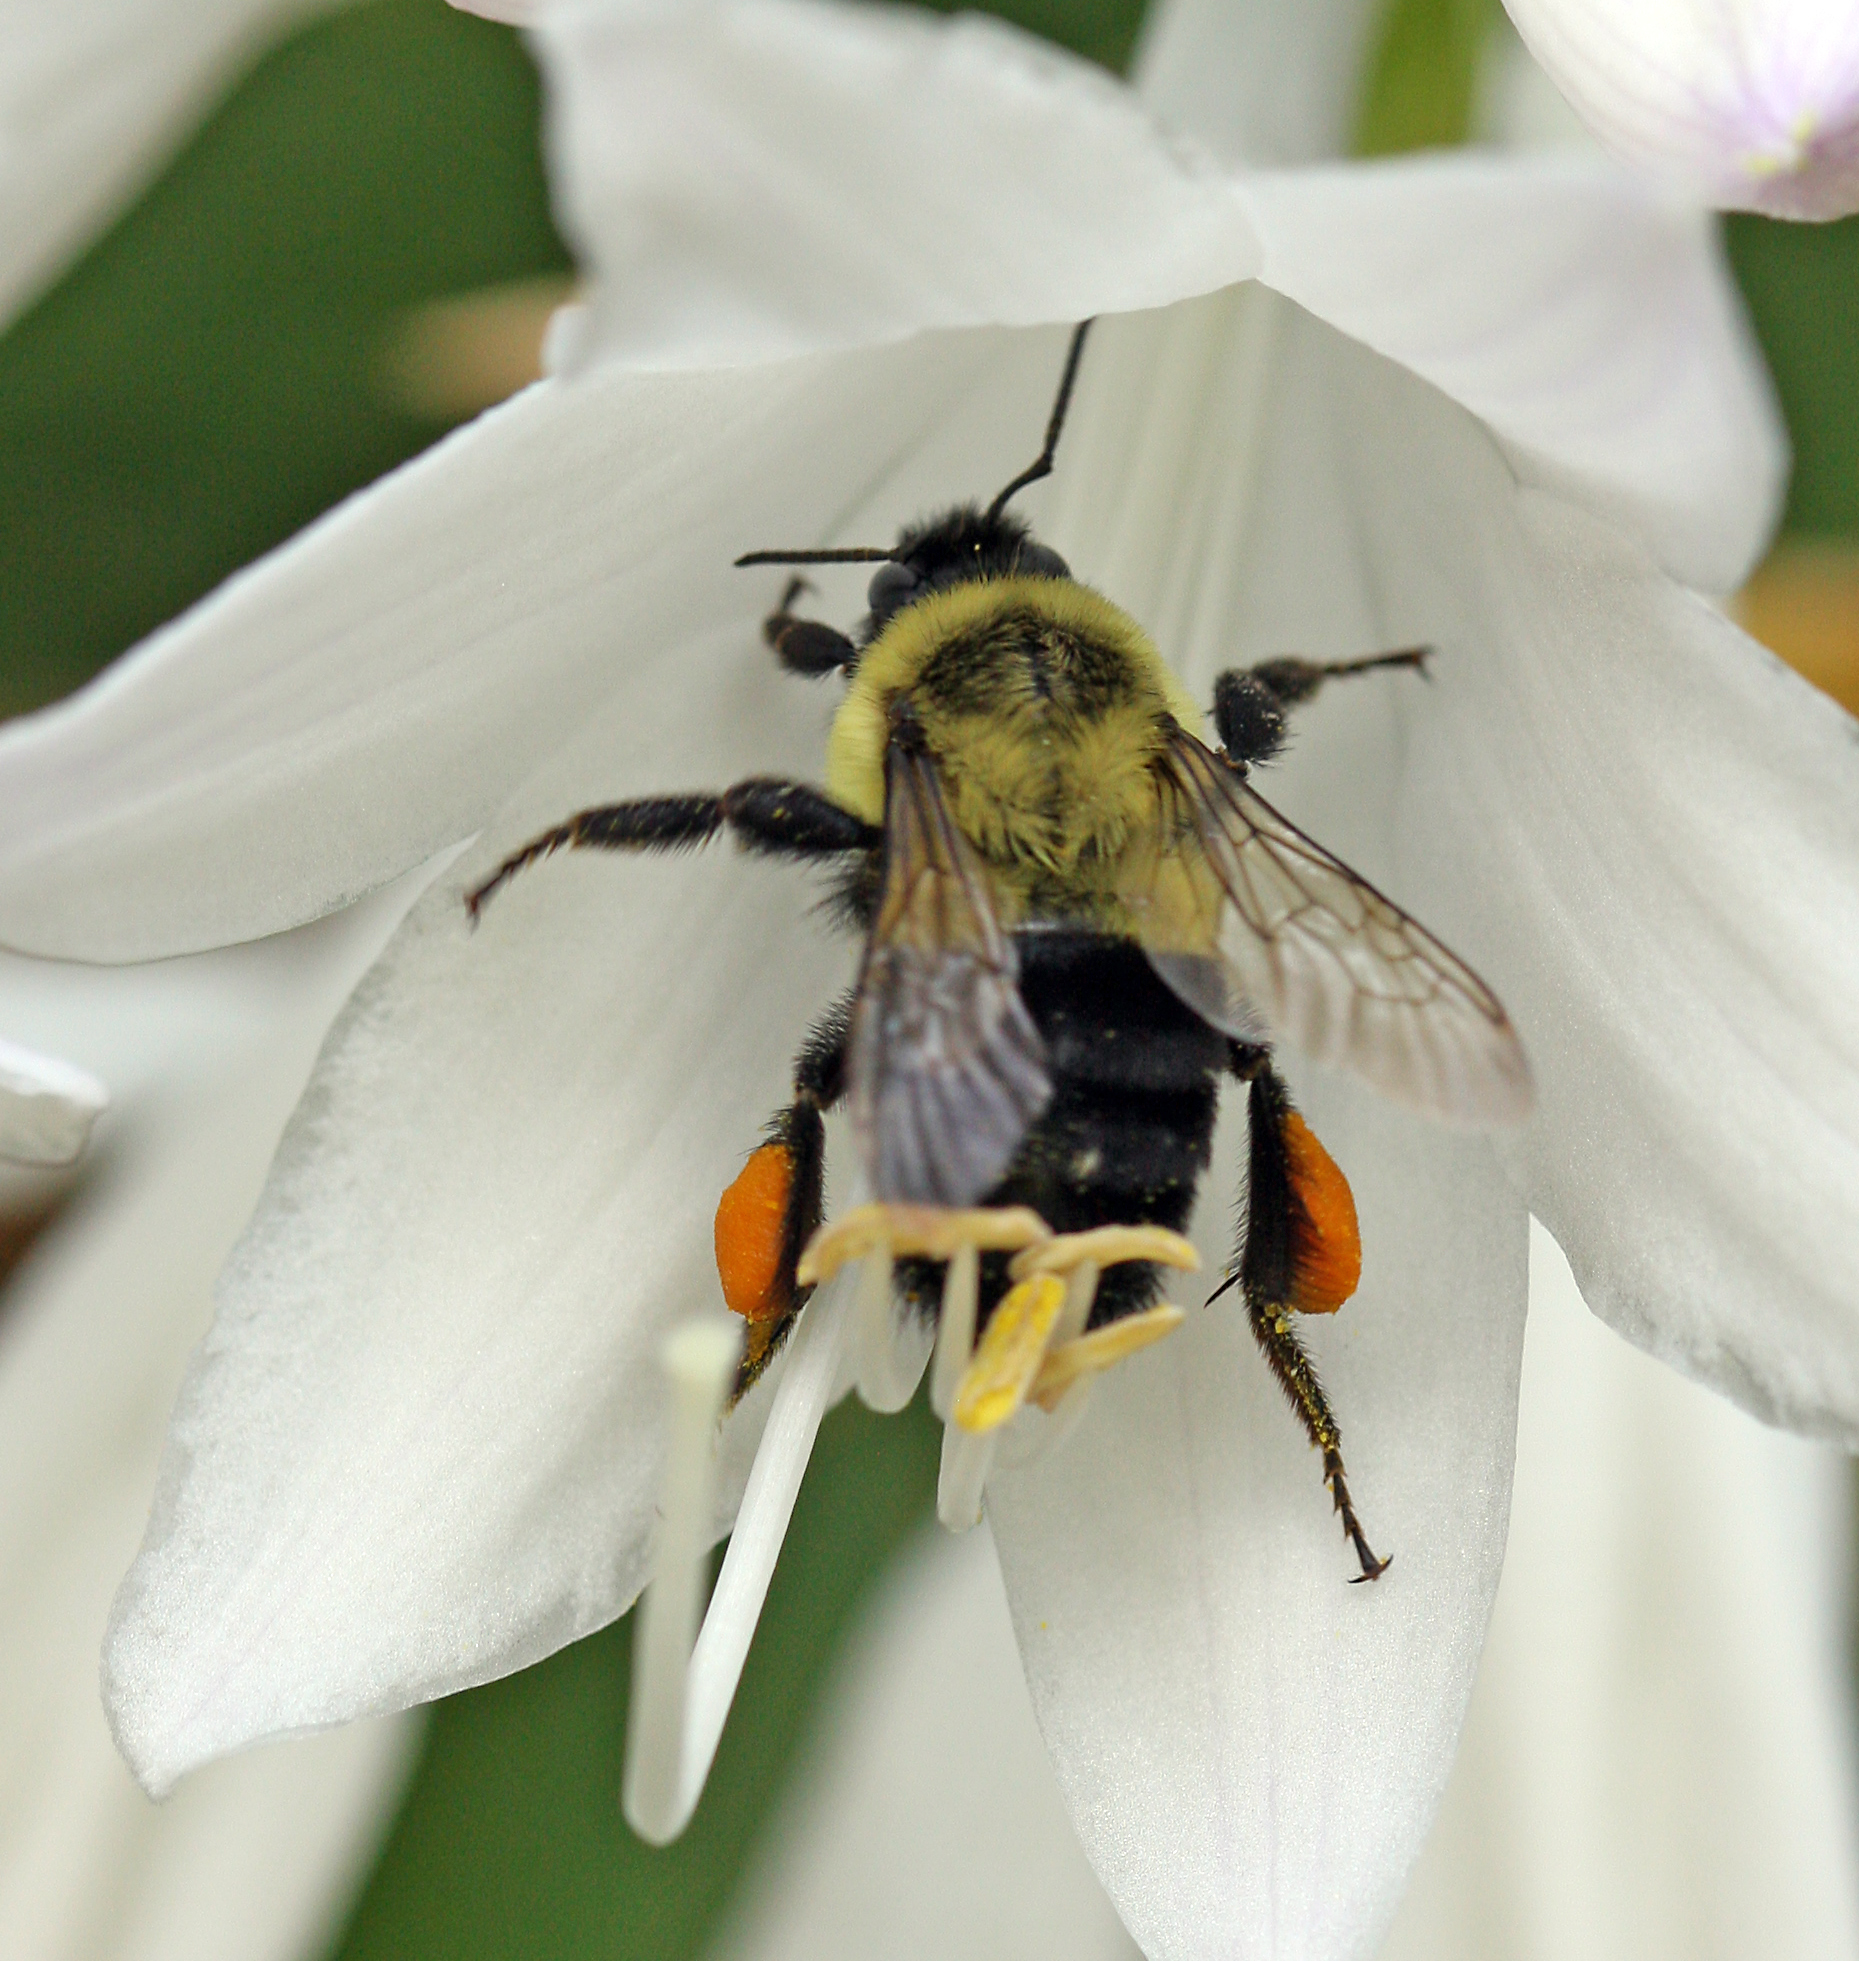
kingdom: Animalia
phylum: Arthropoda
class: Insecta
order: Hymenoptera
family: Apidae
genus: Bombus
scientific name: Bombus impatiens
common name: Common eastern bumble bee
